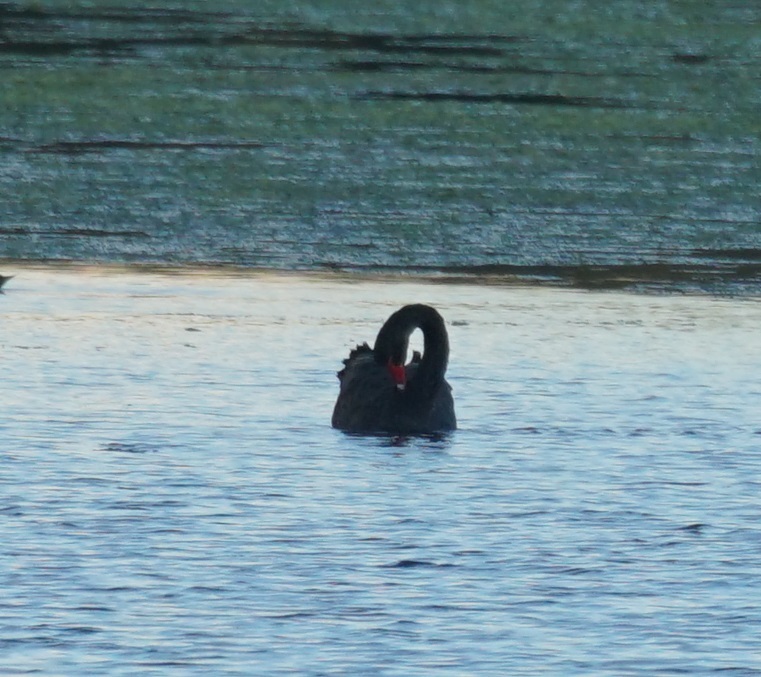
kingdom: Animalia
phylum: Chordata
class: Aves
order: Anseriformes
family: Anatidae
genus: Cygnus
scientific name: Cygnus atratus
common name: Black swan
